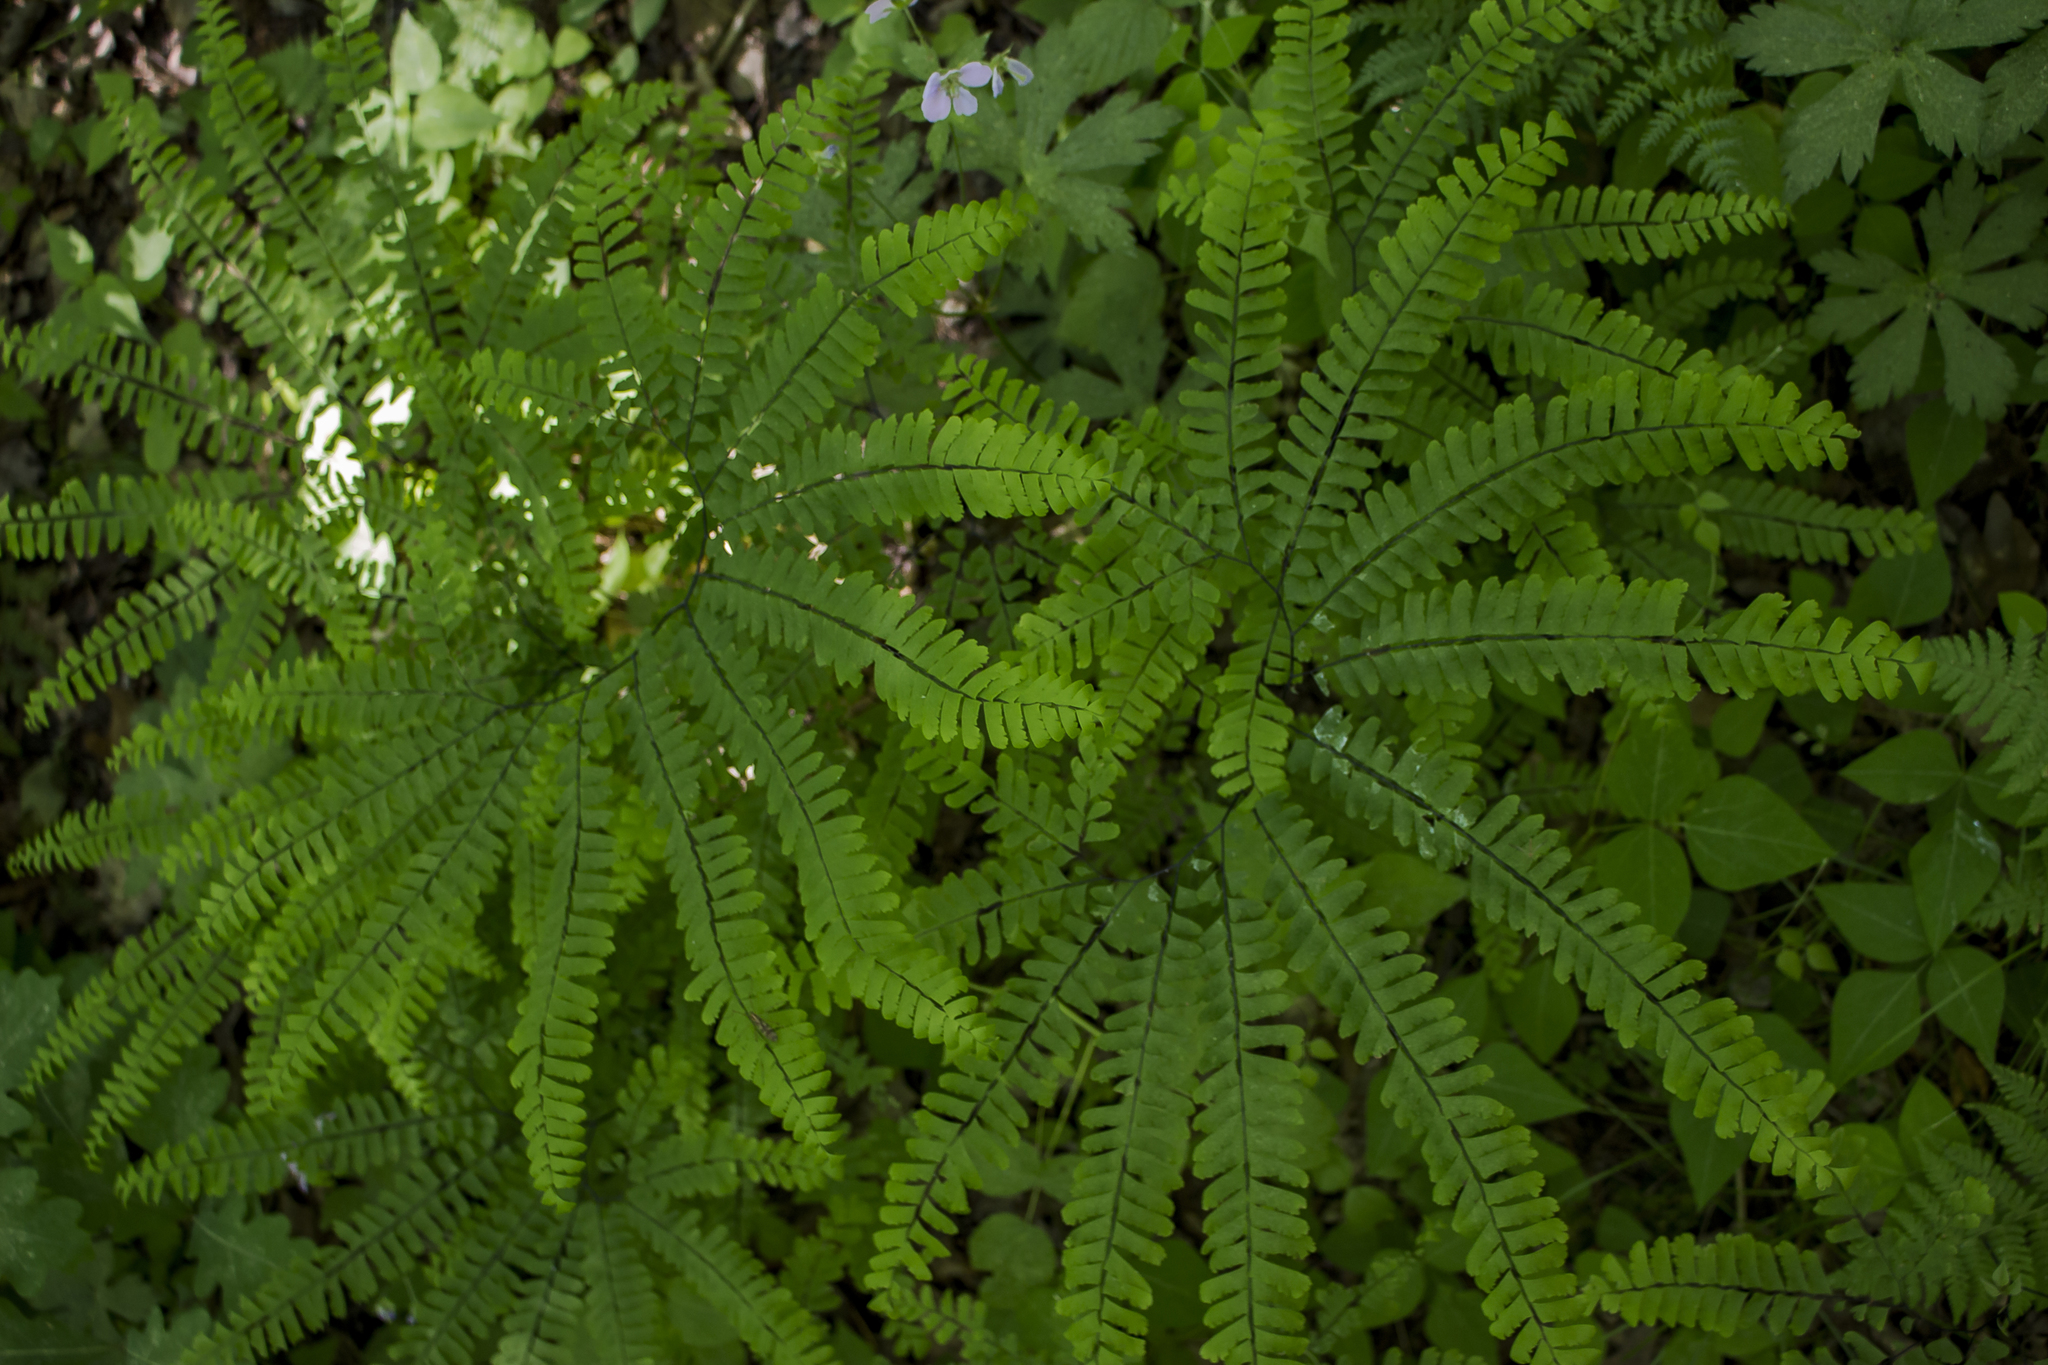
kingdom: Plantae
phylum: Tracheophyta
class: Polypodiopsida
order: Polypodiales
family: Pteridaceae
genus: Adiantum
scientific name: Adiantum pedatum
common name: Five-finger fern
